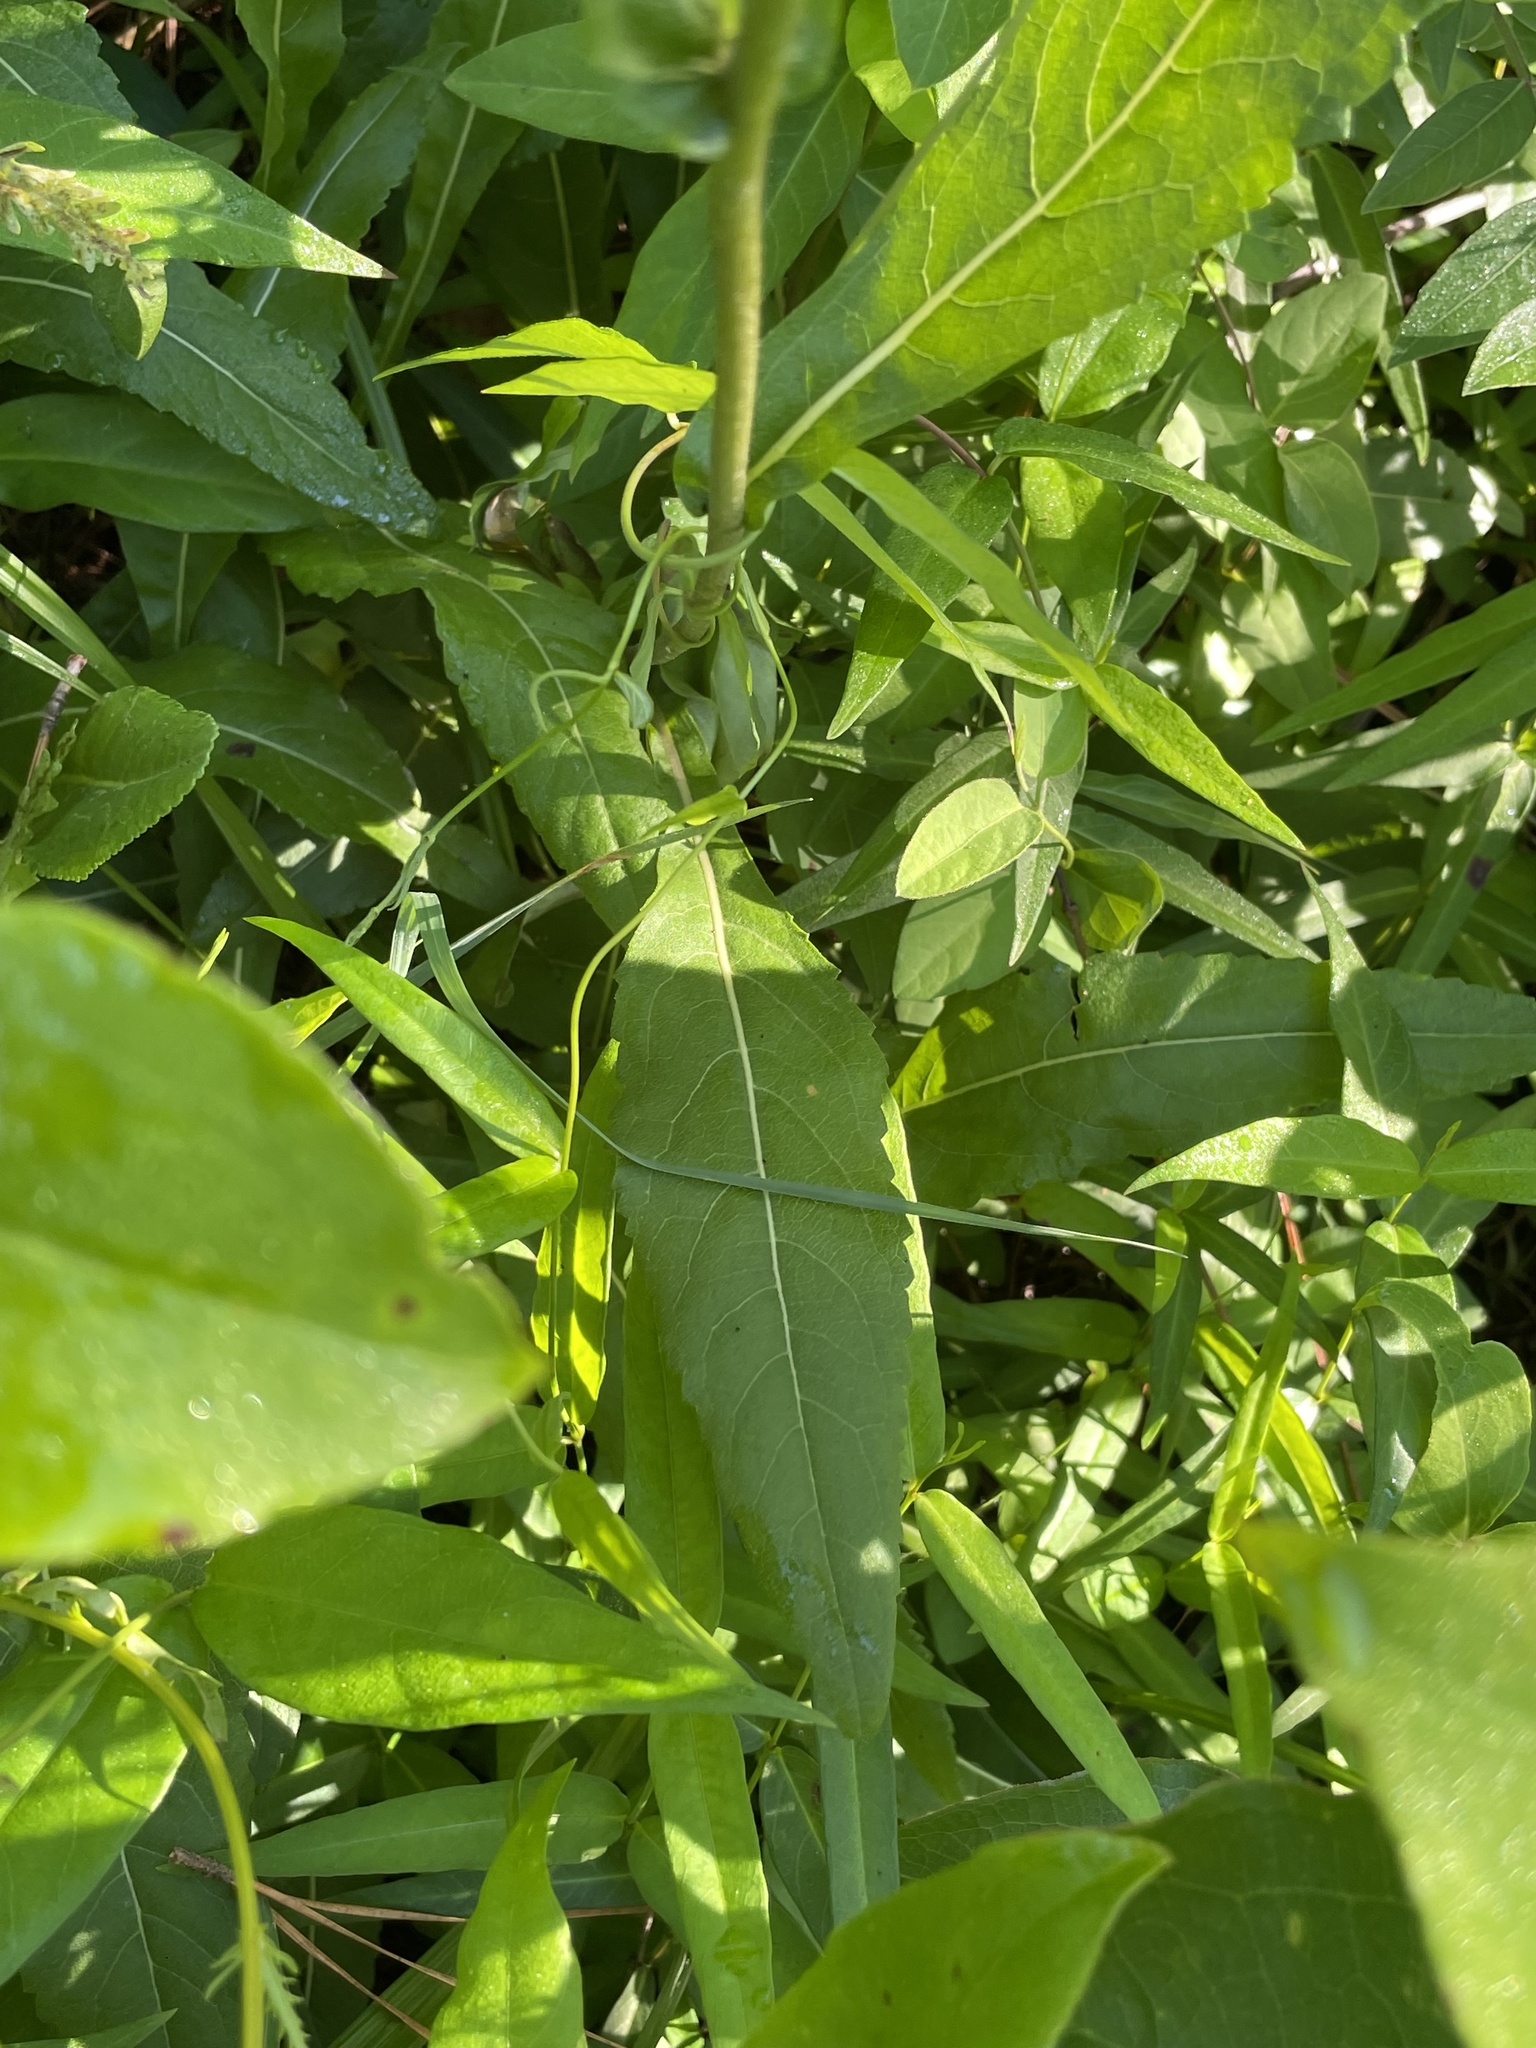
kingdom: Plantae
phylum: Tracheophyta
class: Magnoliopsida
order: Asterales
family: Asteraceae
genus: Parthenium
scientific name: Parthenium integrifolium
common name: American feverfew
